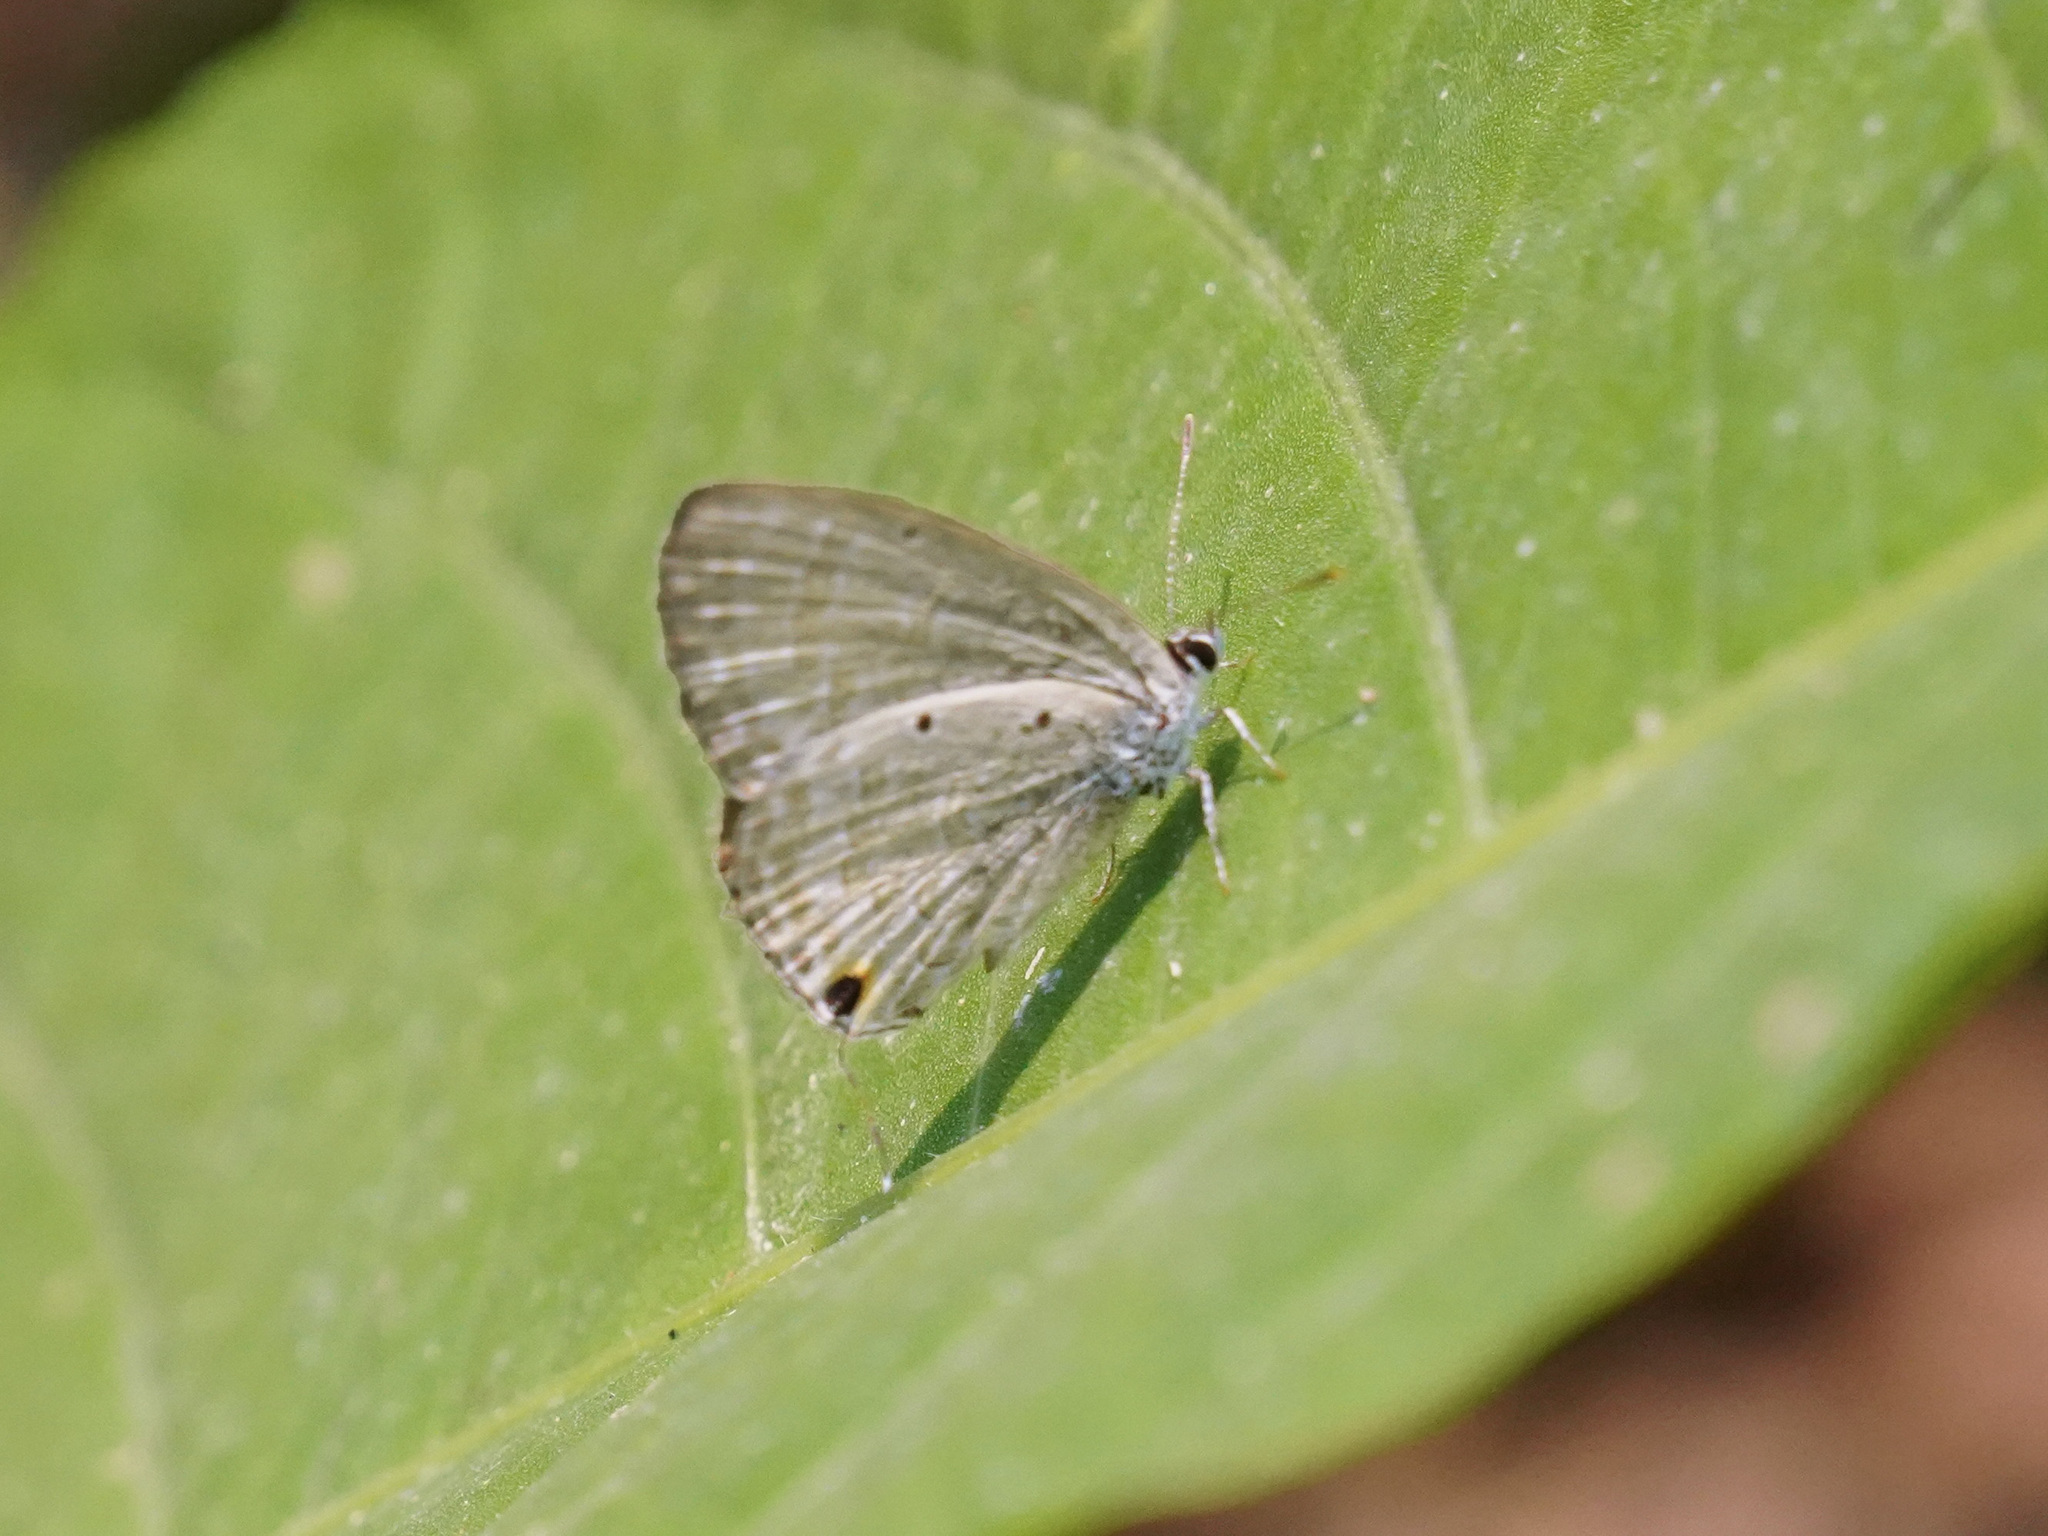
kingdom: Animalia
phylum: Arthropoda
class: Insecta
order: Lepidoptera
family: Lycaenidae
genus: Catochrysops
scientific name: Catochrysops strabo
